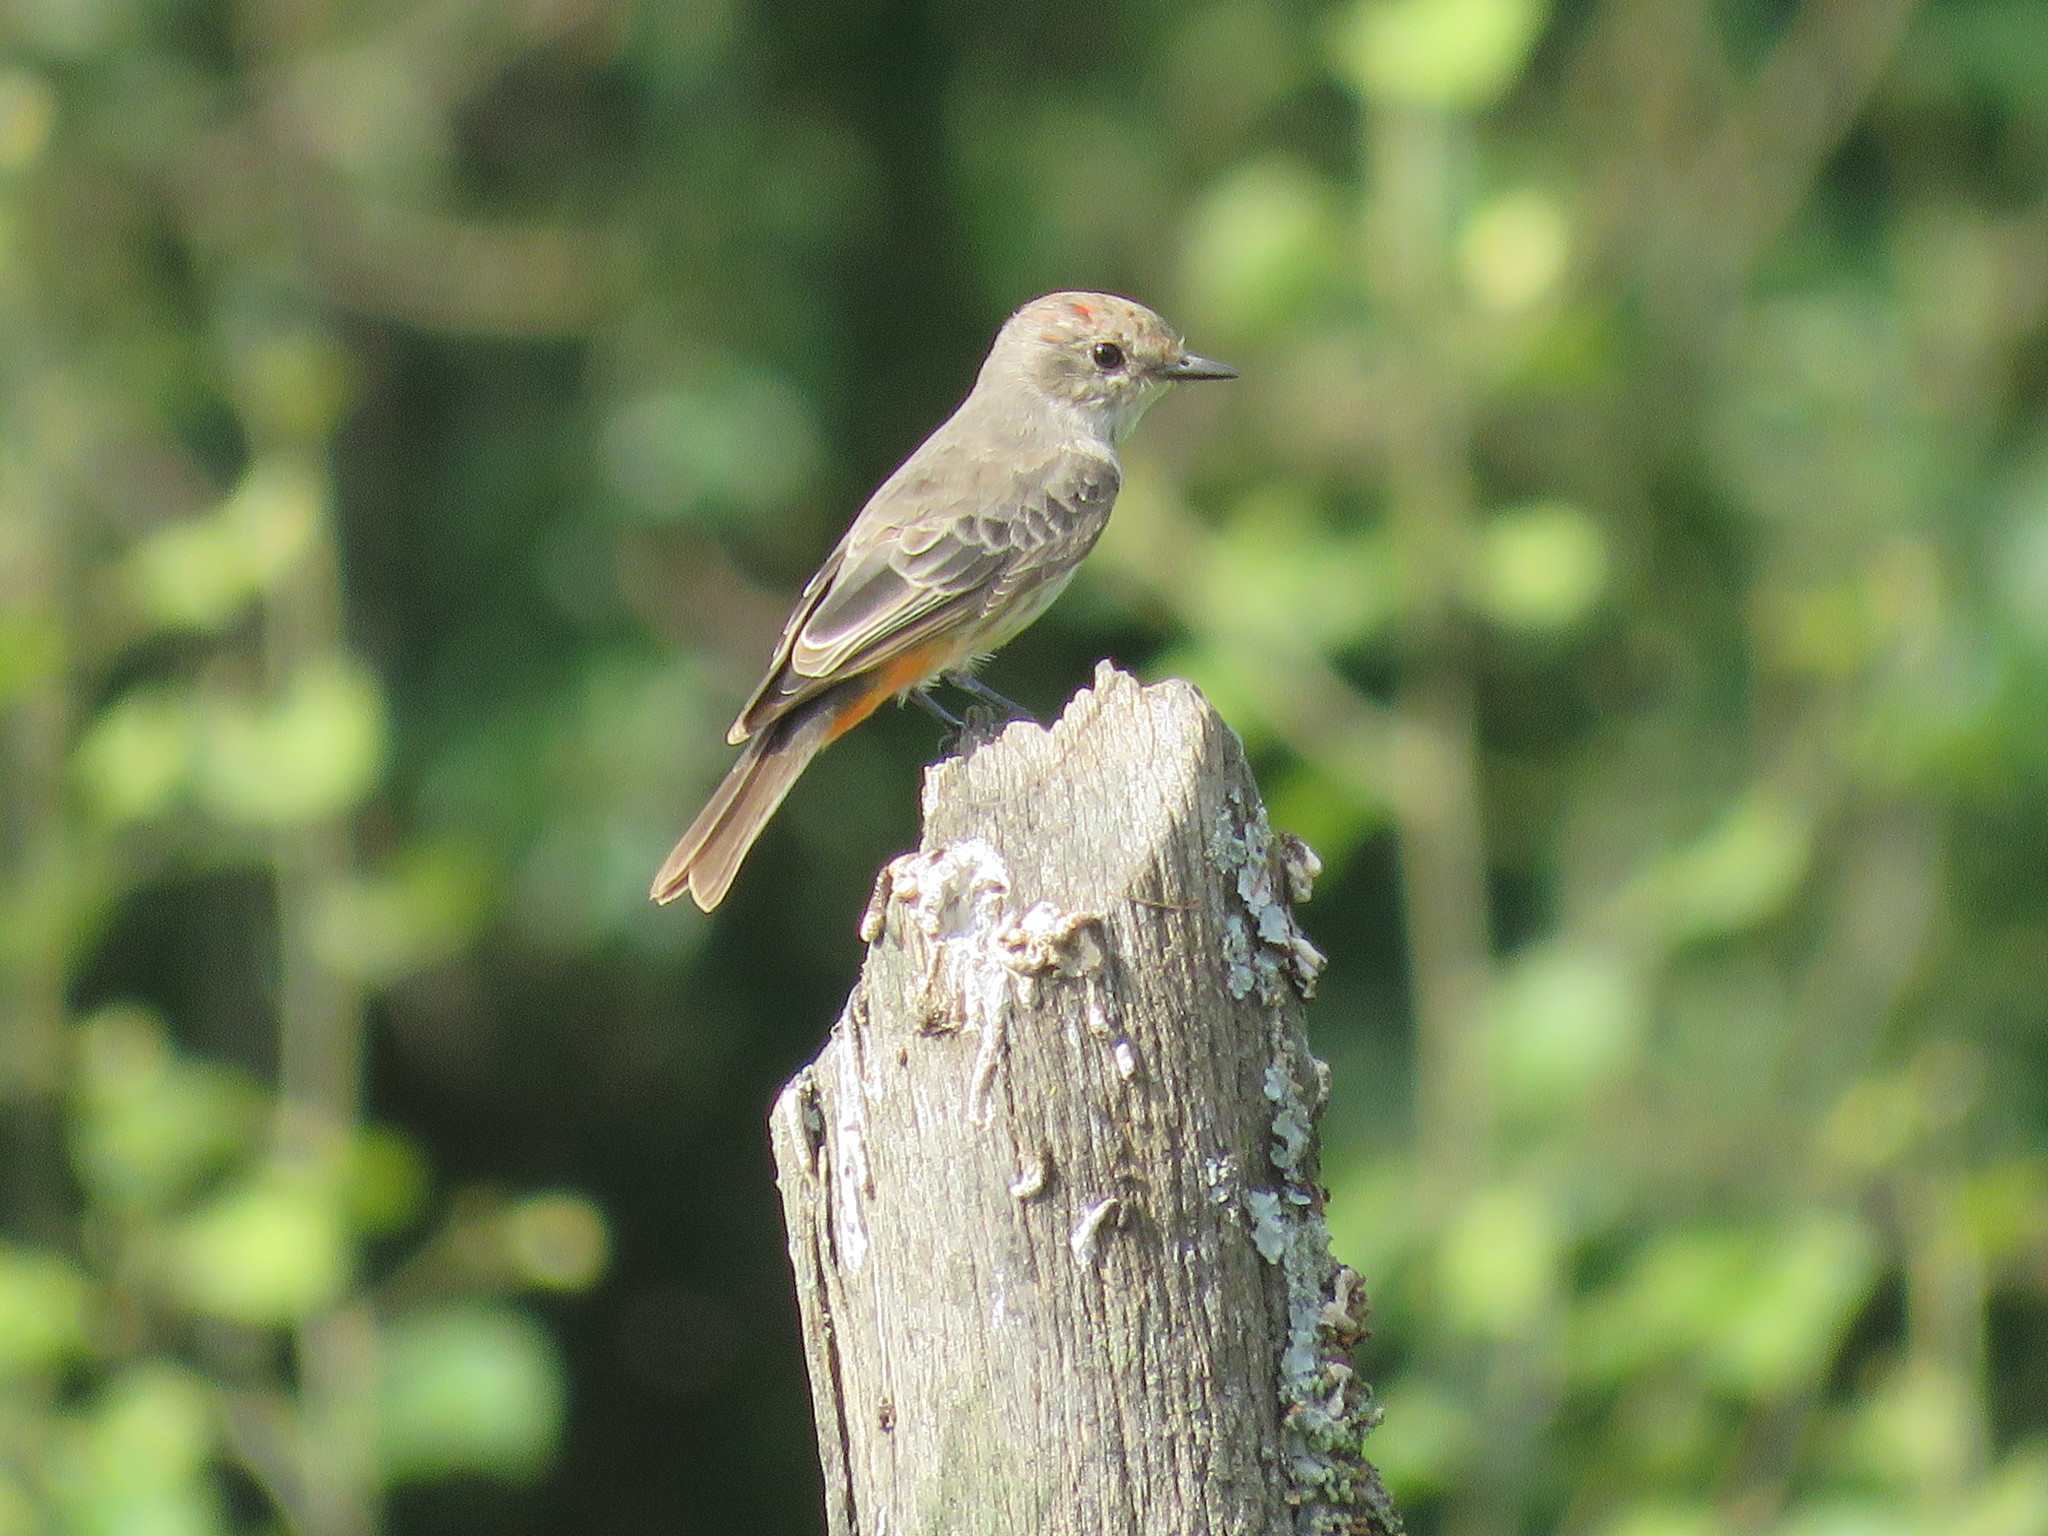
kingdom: Animalia
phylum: Chordata
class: Aves
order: Passeriformes
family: Tyrannidae
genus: Pyrocephalus
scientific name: Pyrocephalus rubinus
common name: Vermilion flycatcher
